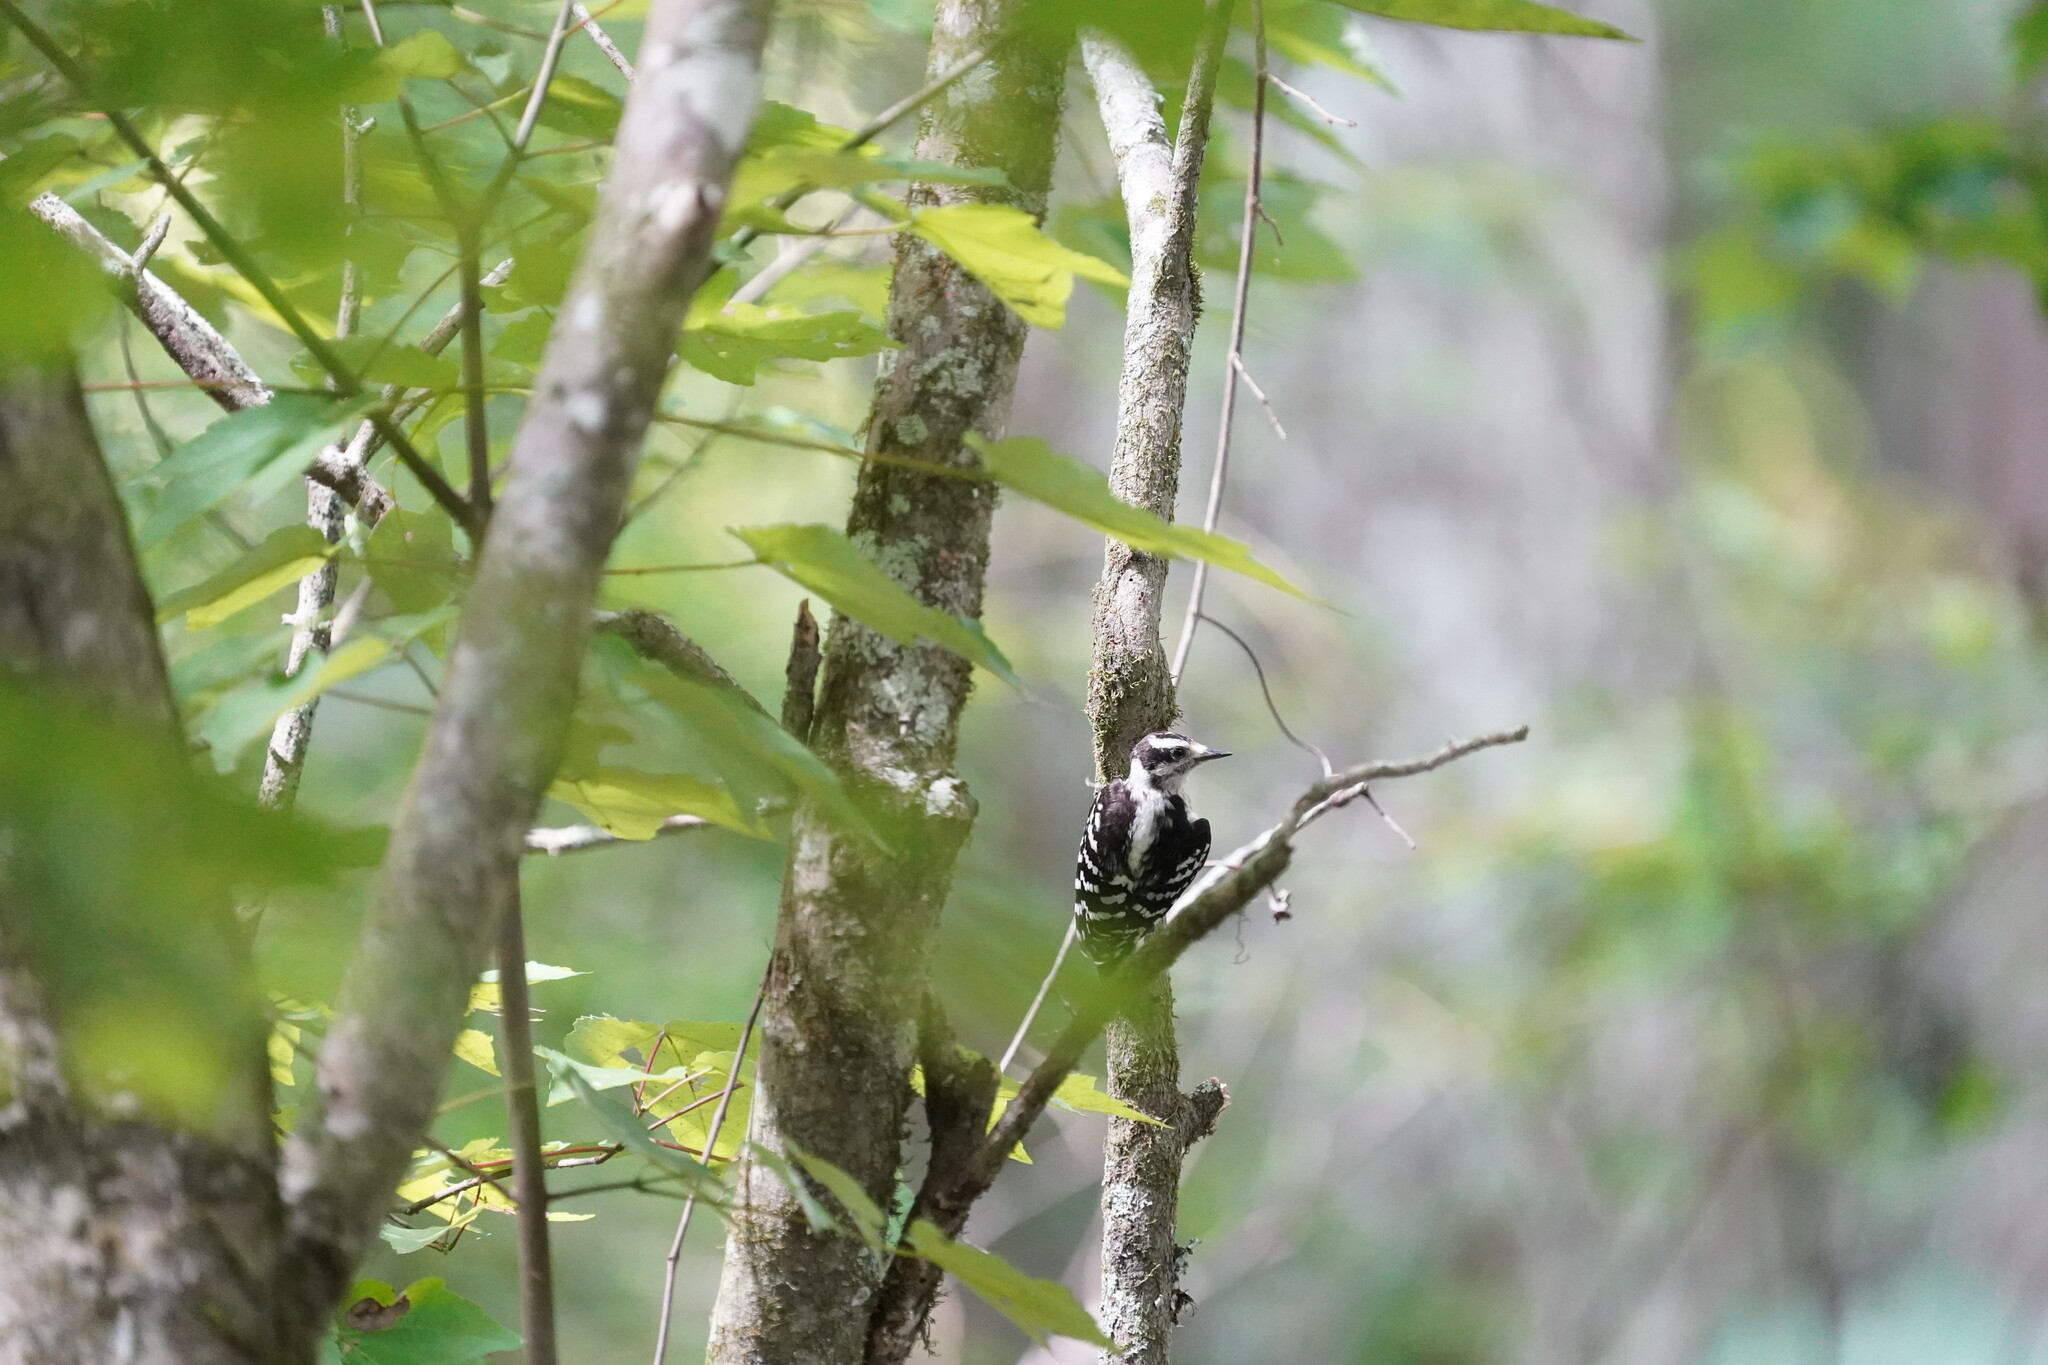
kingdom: Animalia
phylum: Chordata
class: Aves
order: Piciformes
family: Picidae
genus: Dryobates
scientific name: Dryobates pubescens
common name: Downy woodpecker
